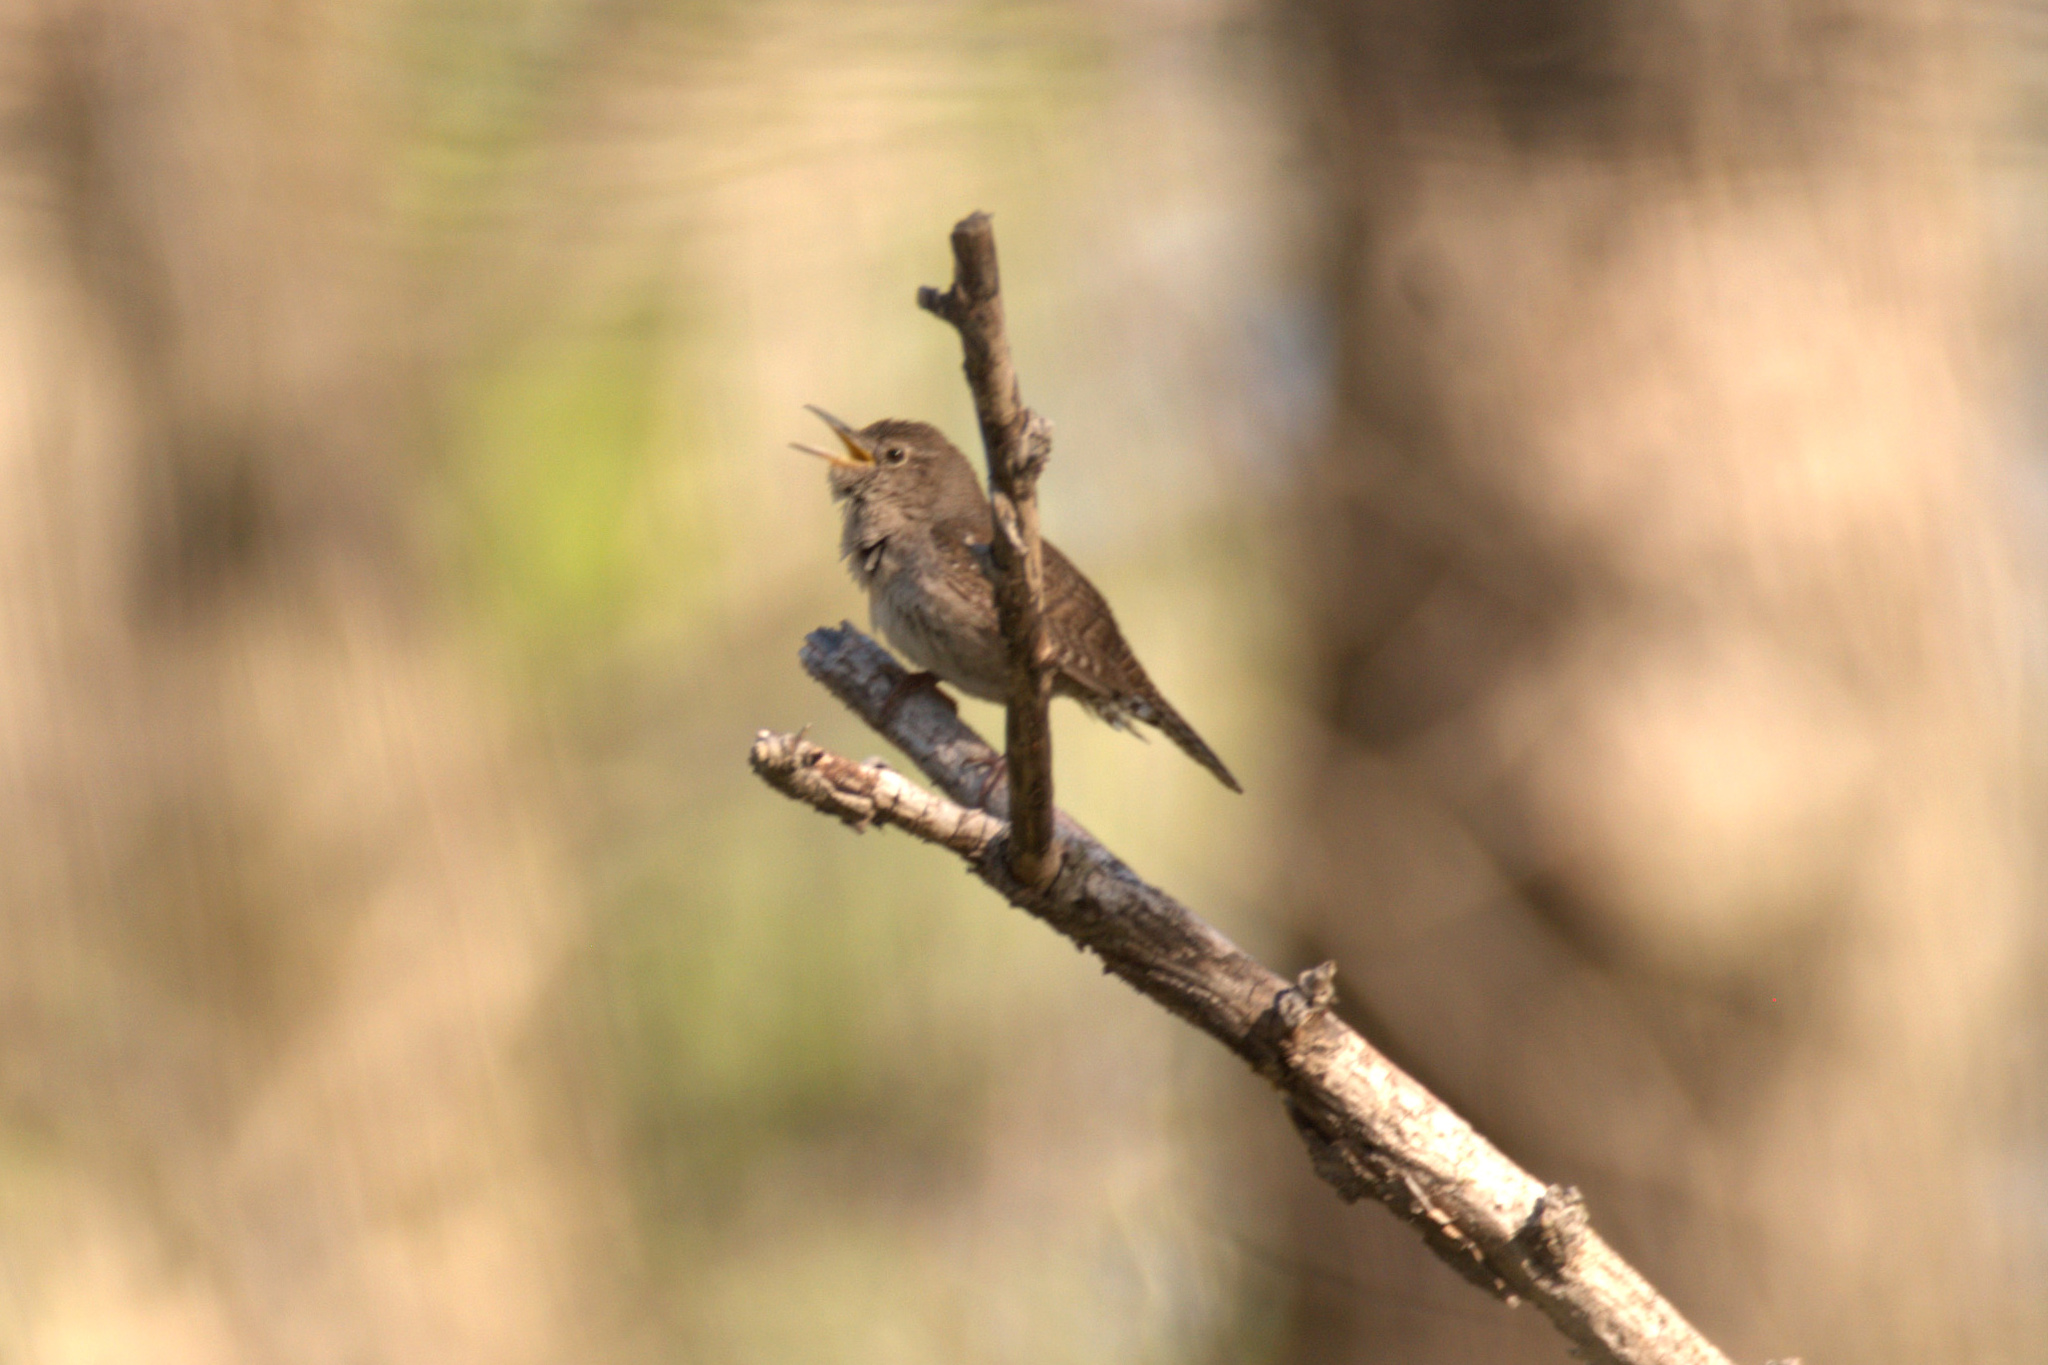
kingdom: Animalia
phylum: Chordata
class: Aves
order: Passeriformes
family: Troglodytidae
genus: Troglodytes
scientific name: Troglodytes aedon
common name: House wren
